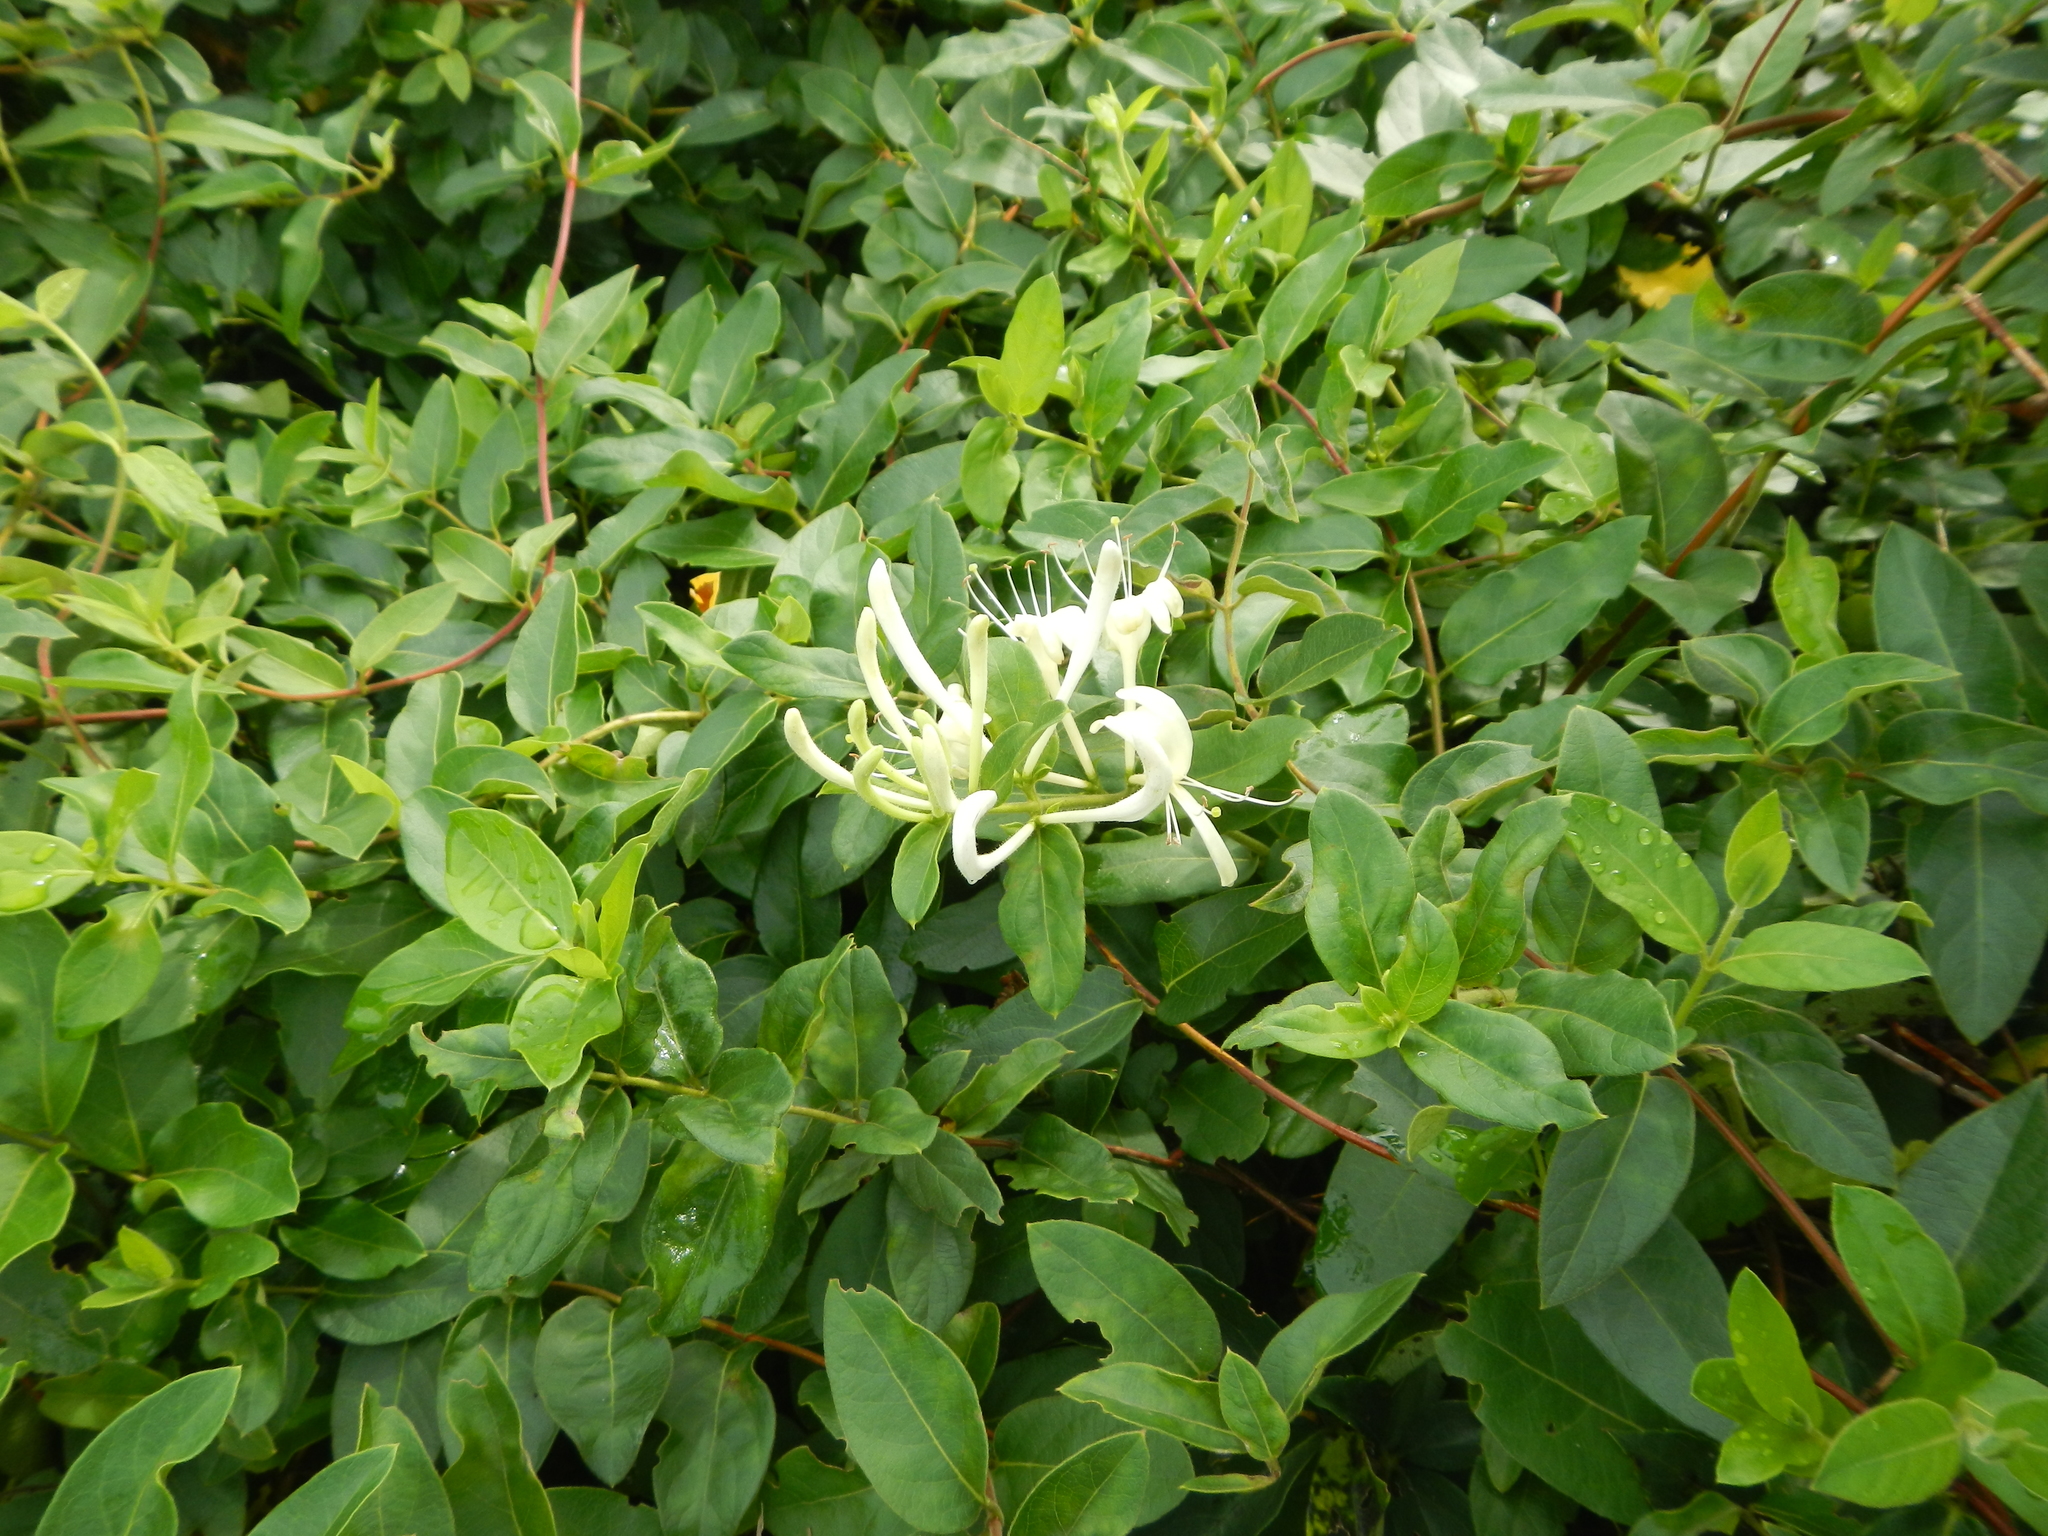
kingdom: Plantae
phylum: Tracheophyta
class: Magnoliopsida
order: Dipsacales
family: Caprifoliaceae
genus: Lonicera
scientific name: Lonicera japonica
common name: Japanese honeysuckle
